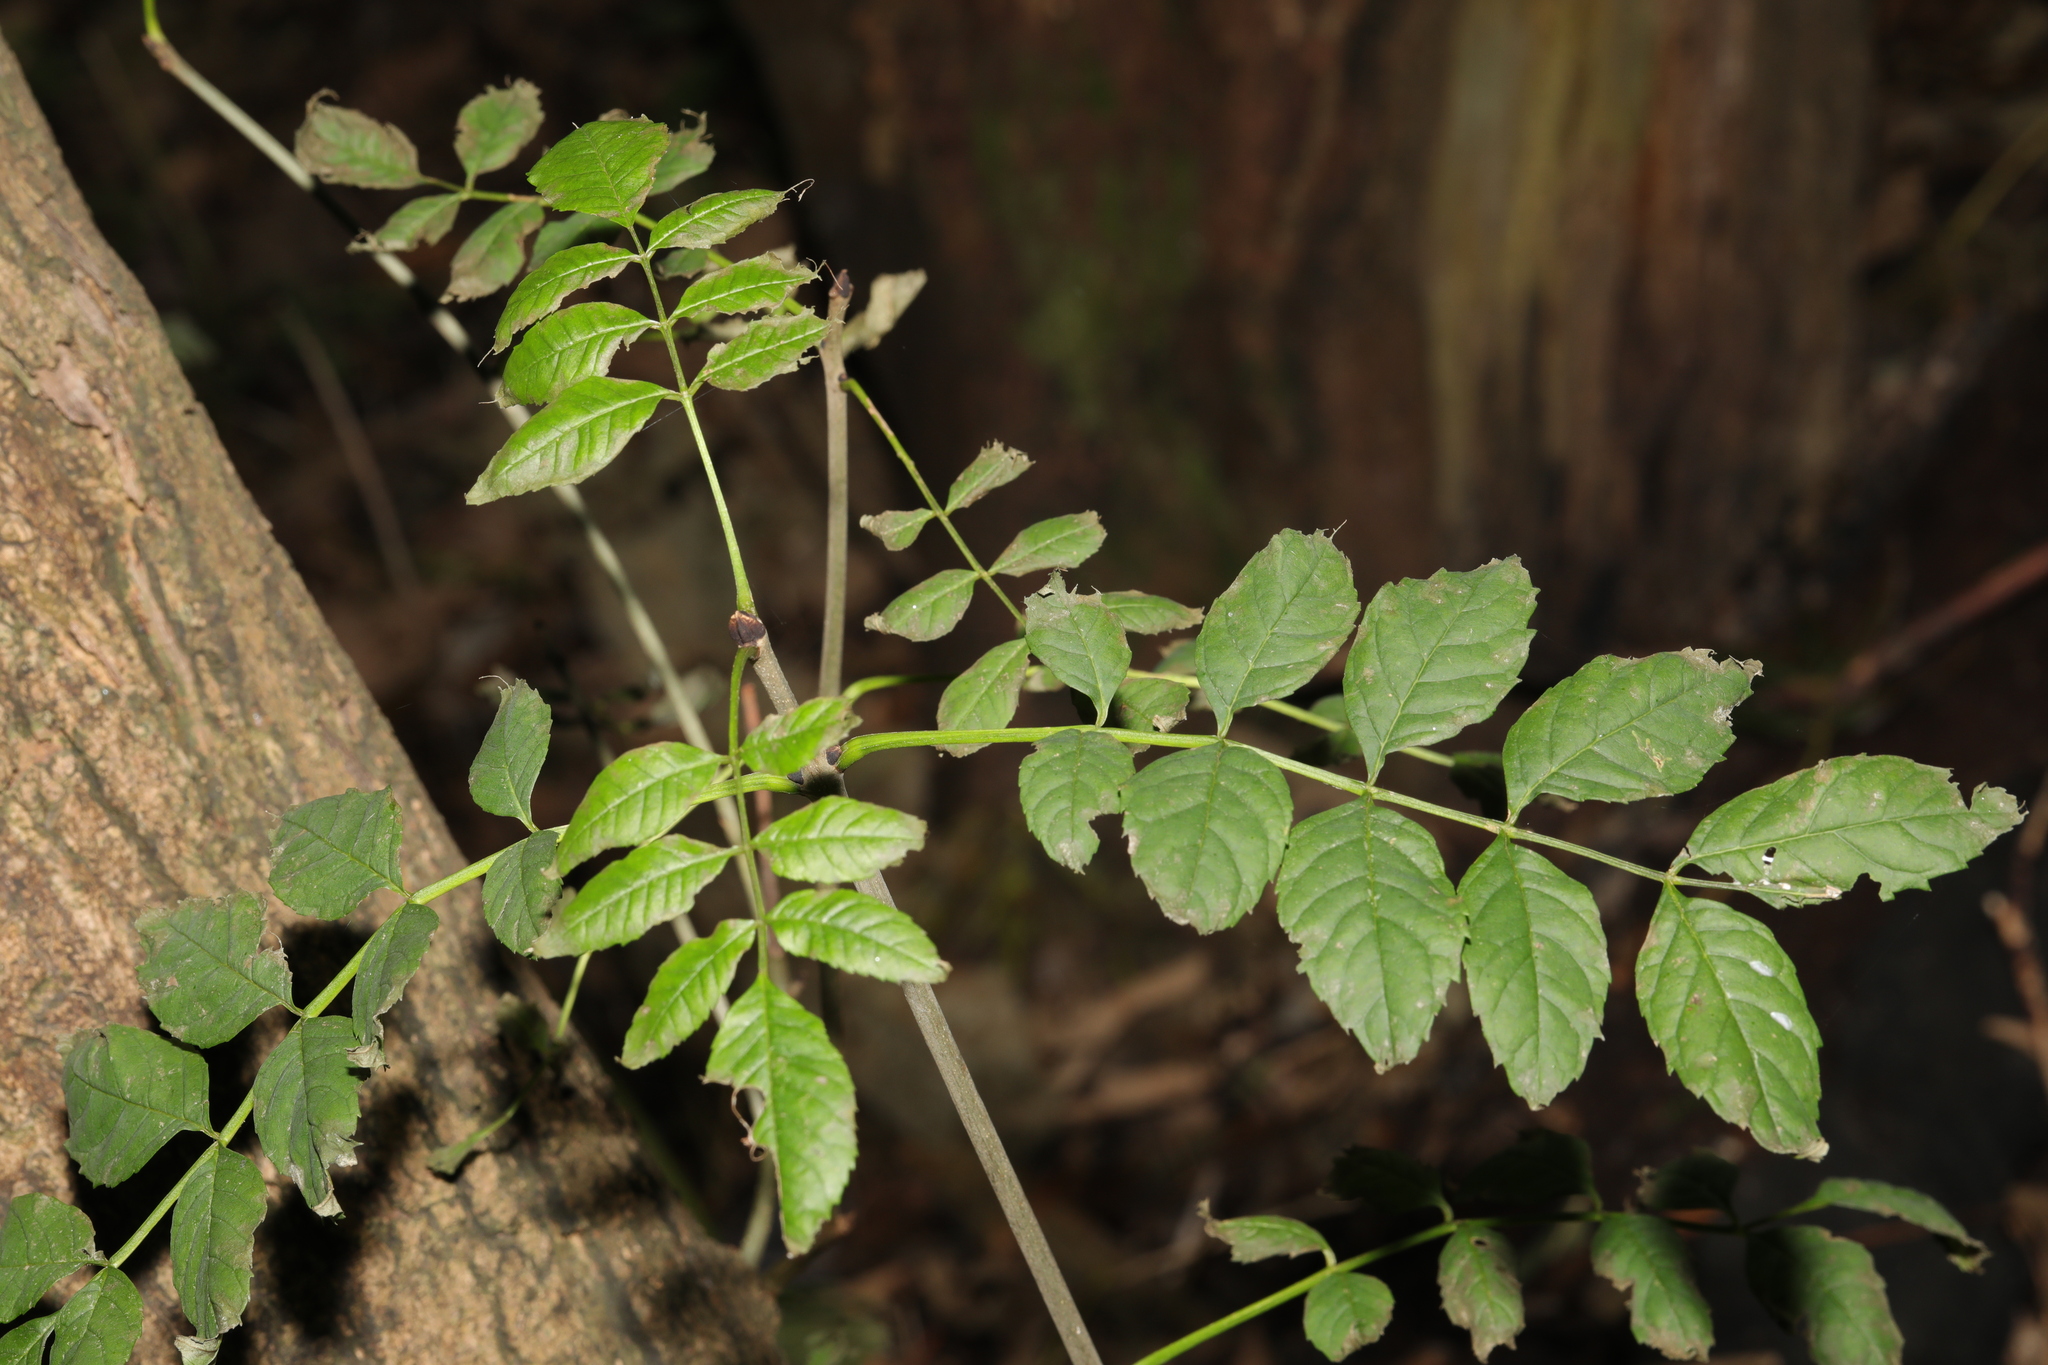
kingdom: Plantae
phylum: Tracheophyta
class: Magnoliopsida
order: Lamiales
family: Oleaceae
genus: Fraxinus
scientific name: Fraxinus excelsior
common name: European ash
